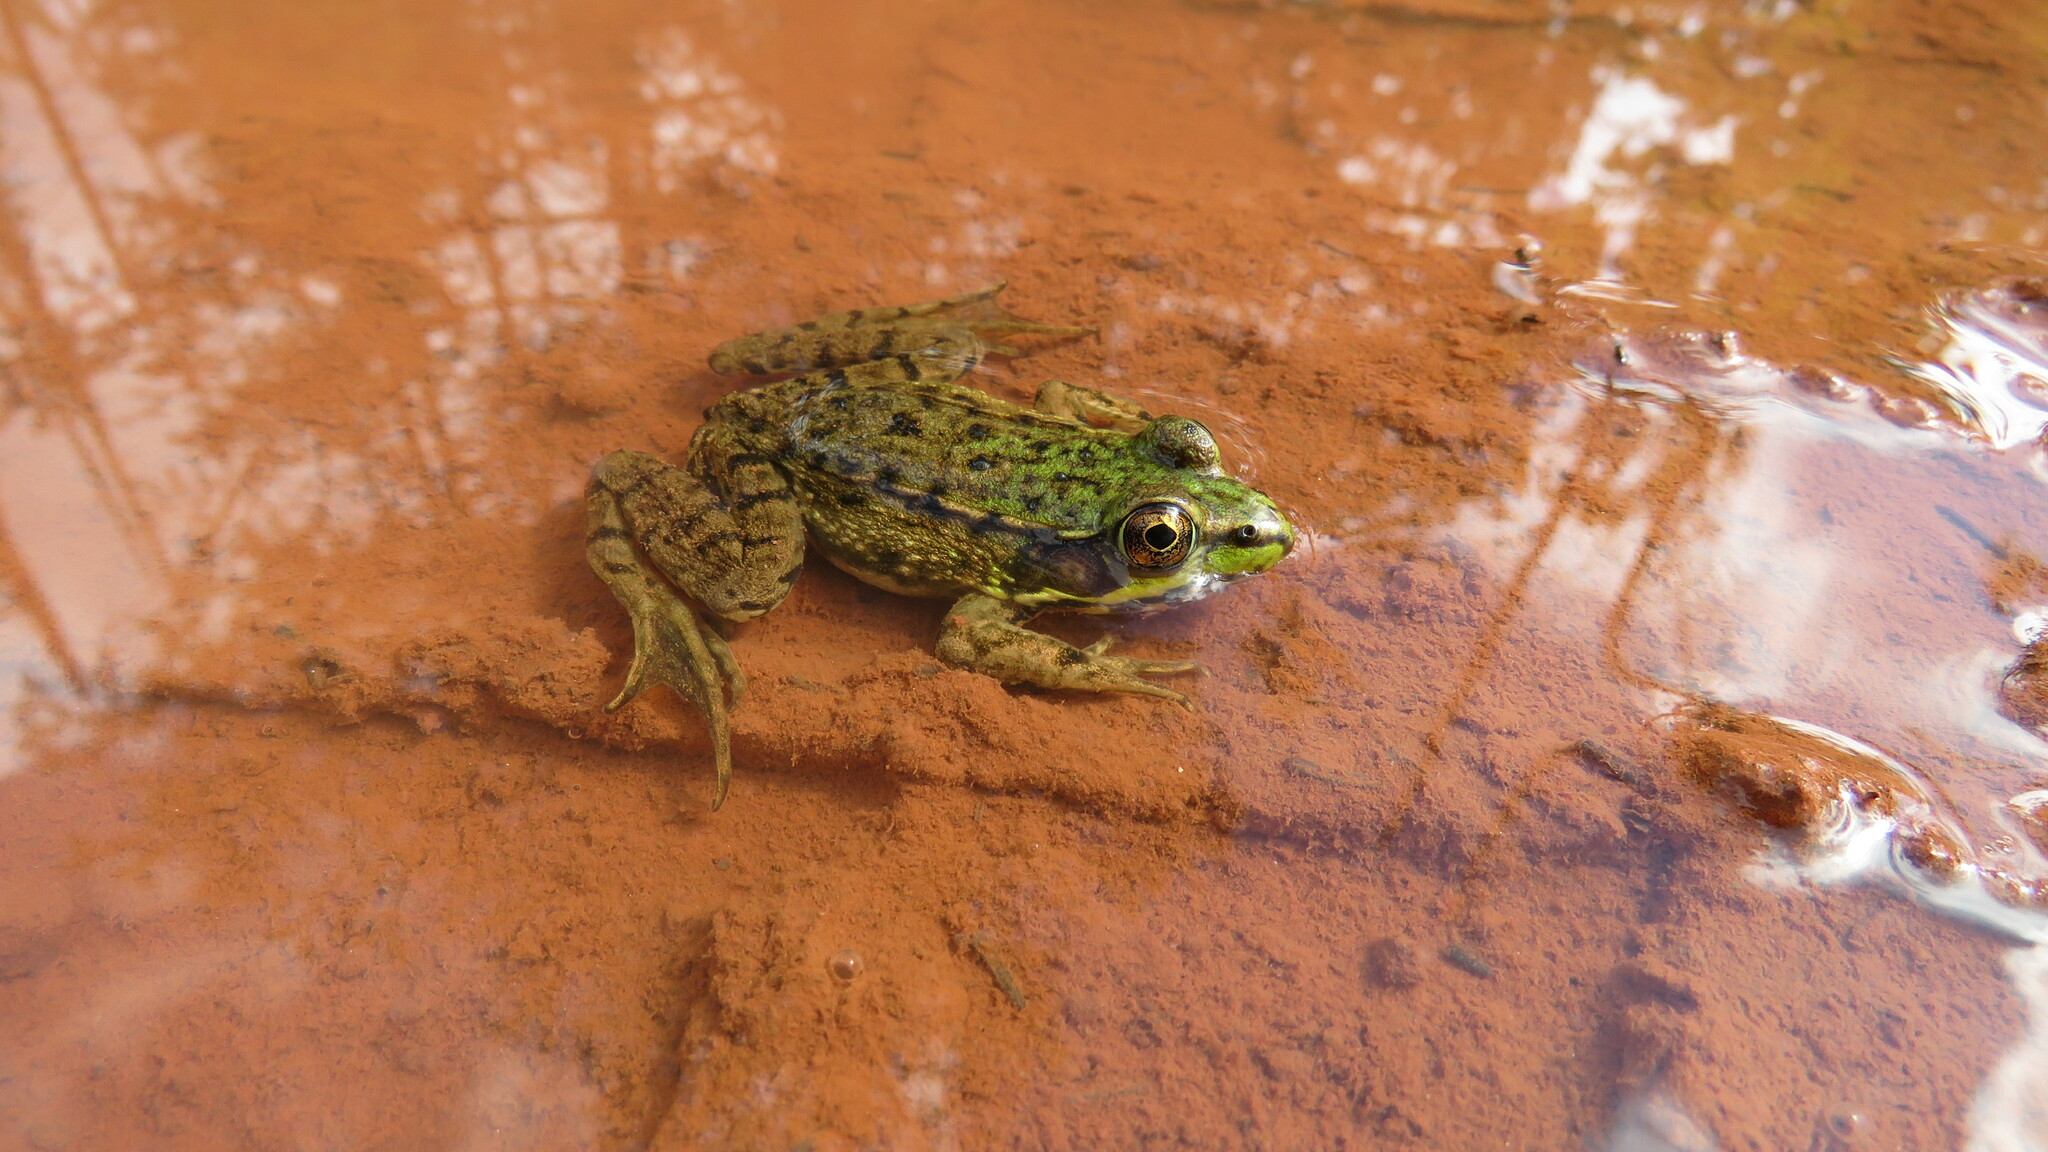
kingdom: Animalia
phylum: Chordata
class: Amphibia
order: Anura
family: Ranidae
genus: Lithobates
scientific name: Lithobates clamitans
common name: Green frog
